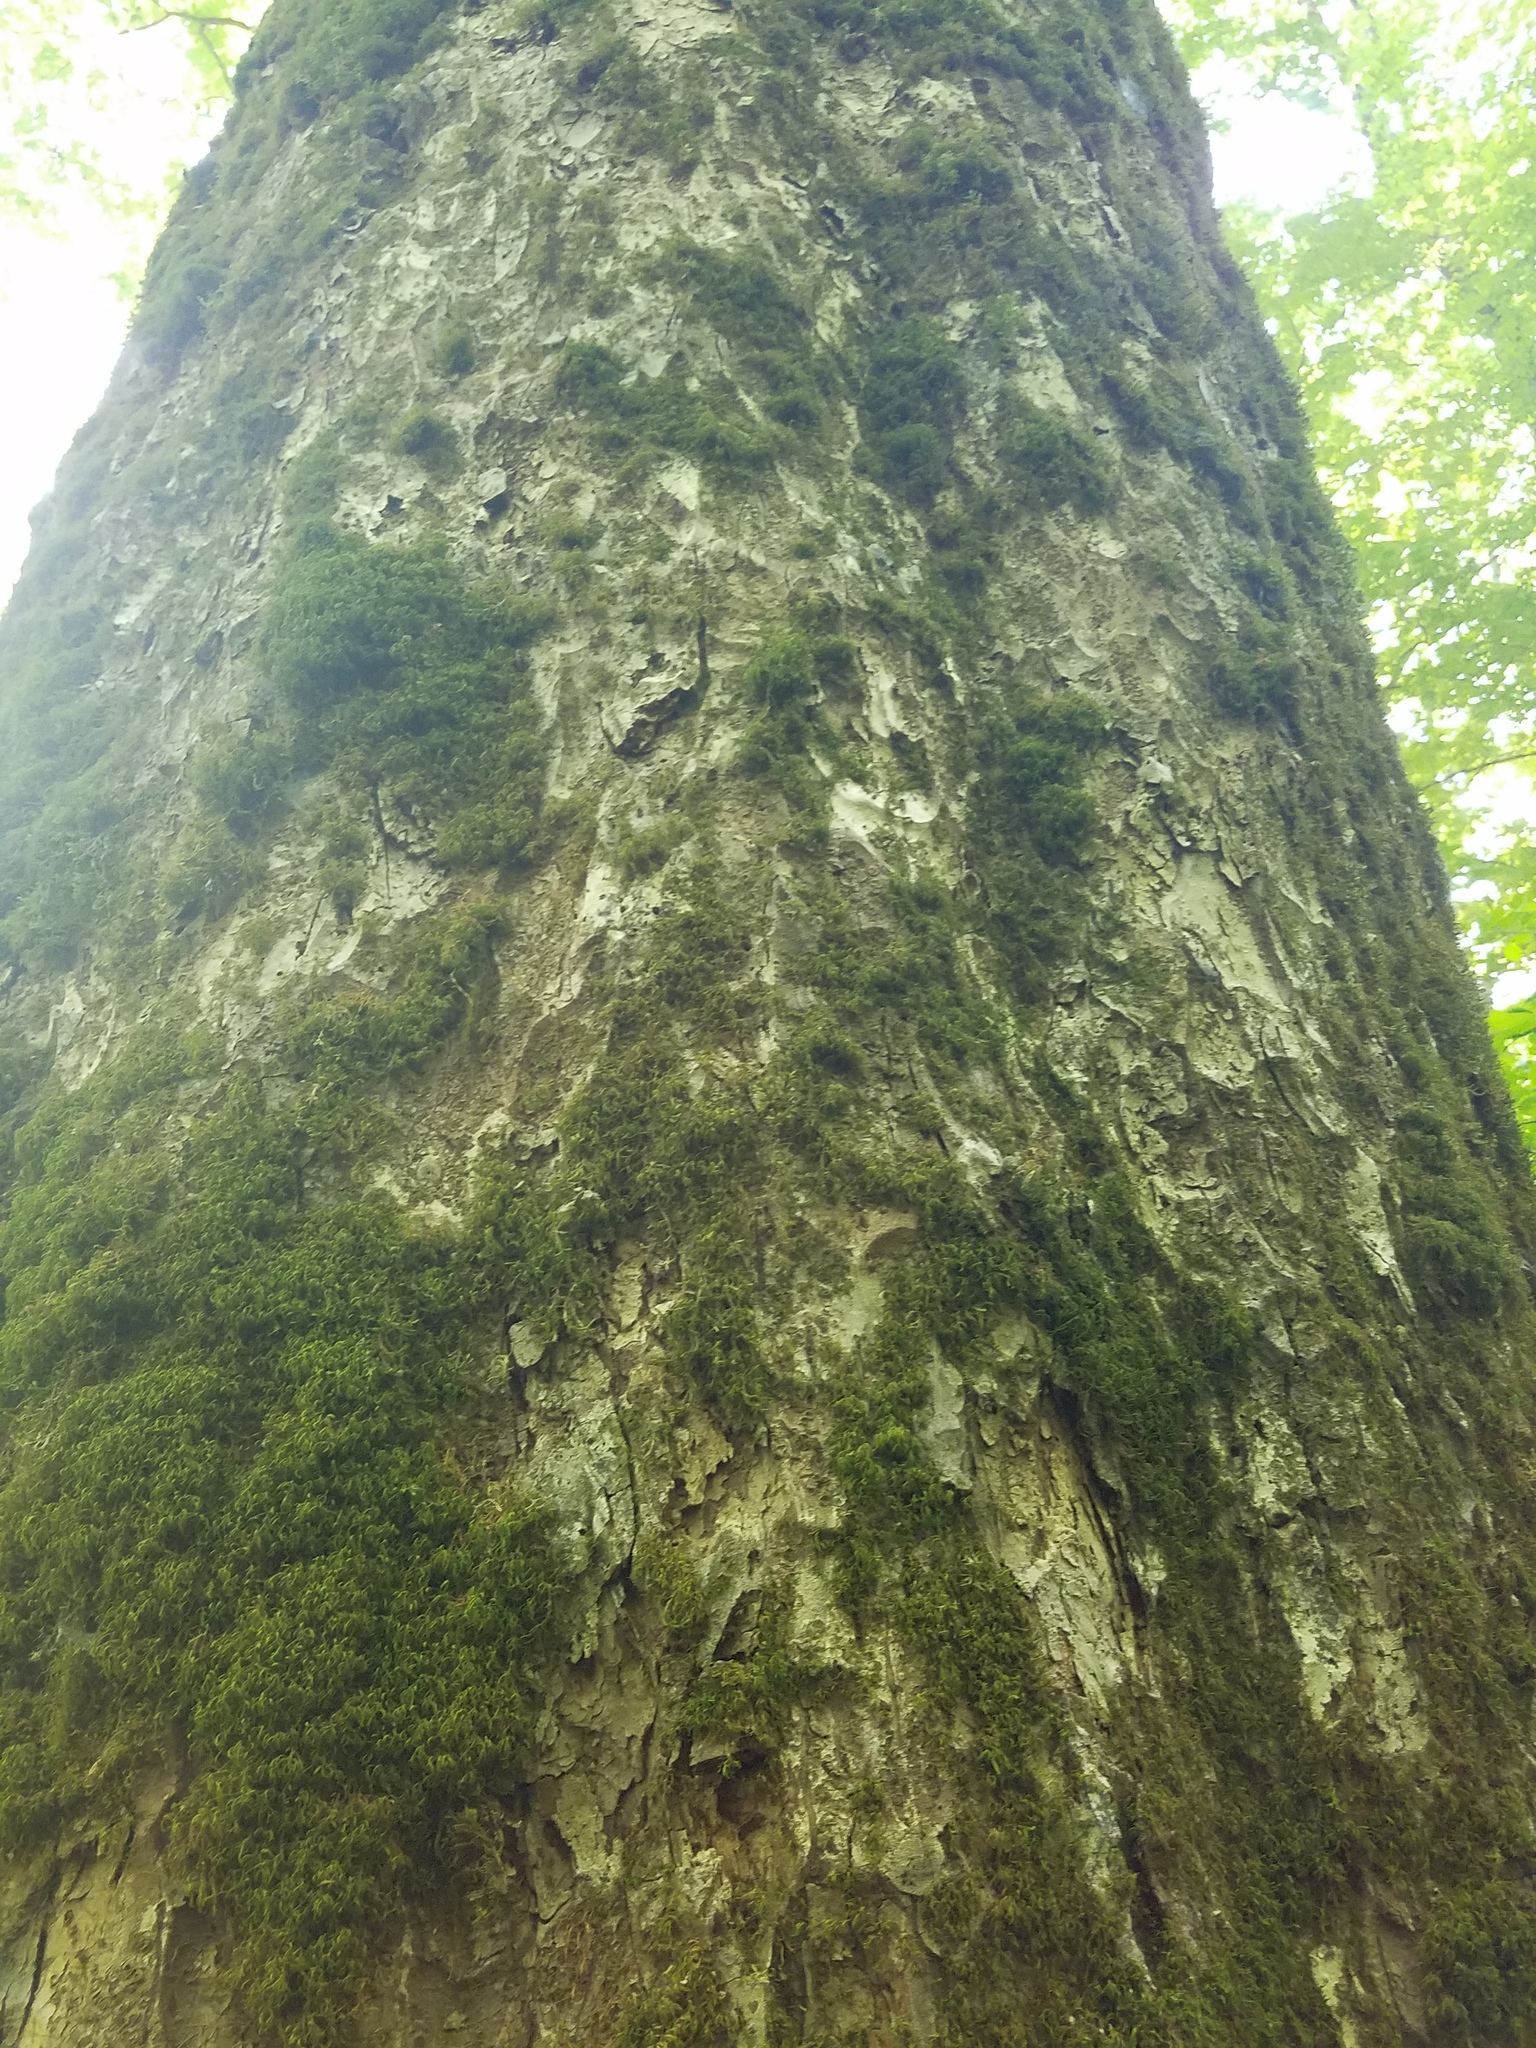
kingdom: Plantae
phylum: Tracheophyta
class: Magnoliopsida
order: Sapindales
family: Sapindaceae
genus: Aesculus
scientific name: Aesculus flava
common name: Yellow buckeye
